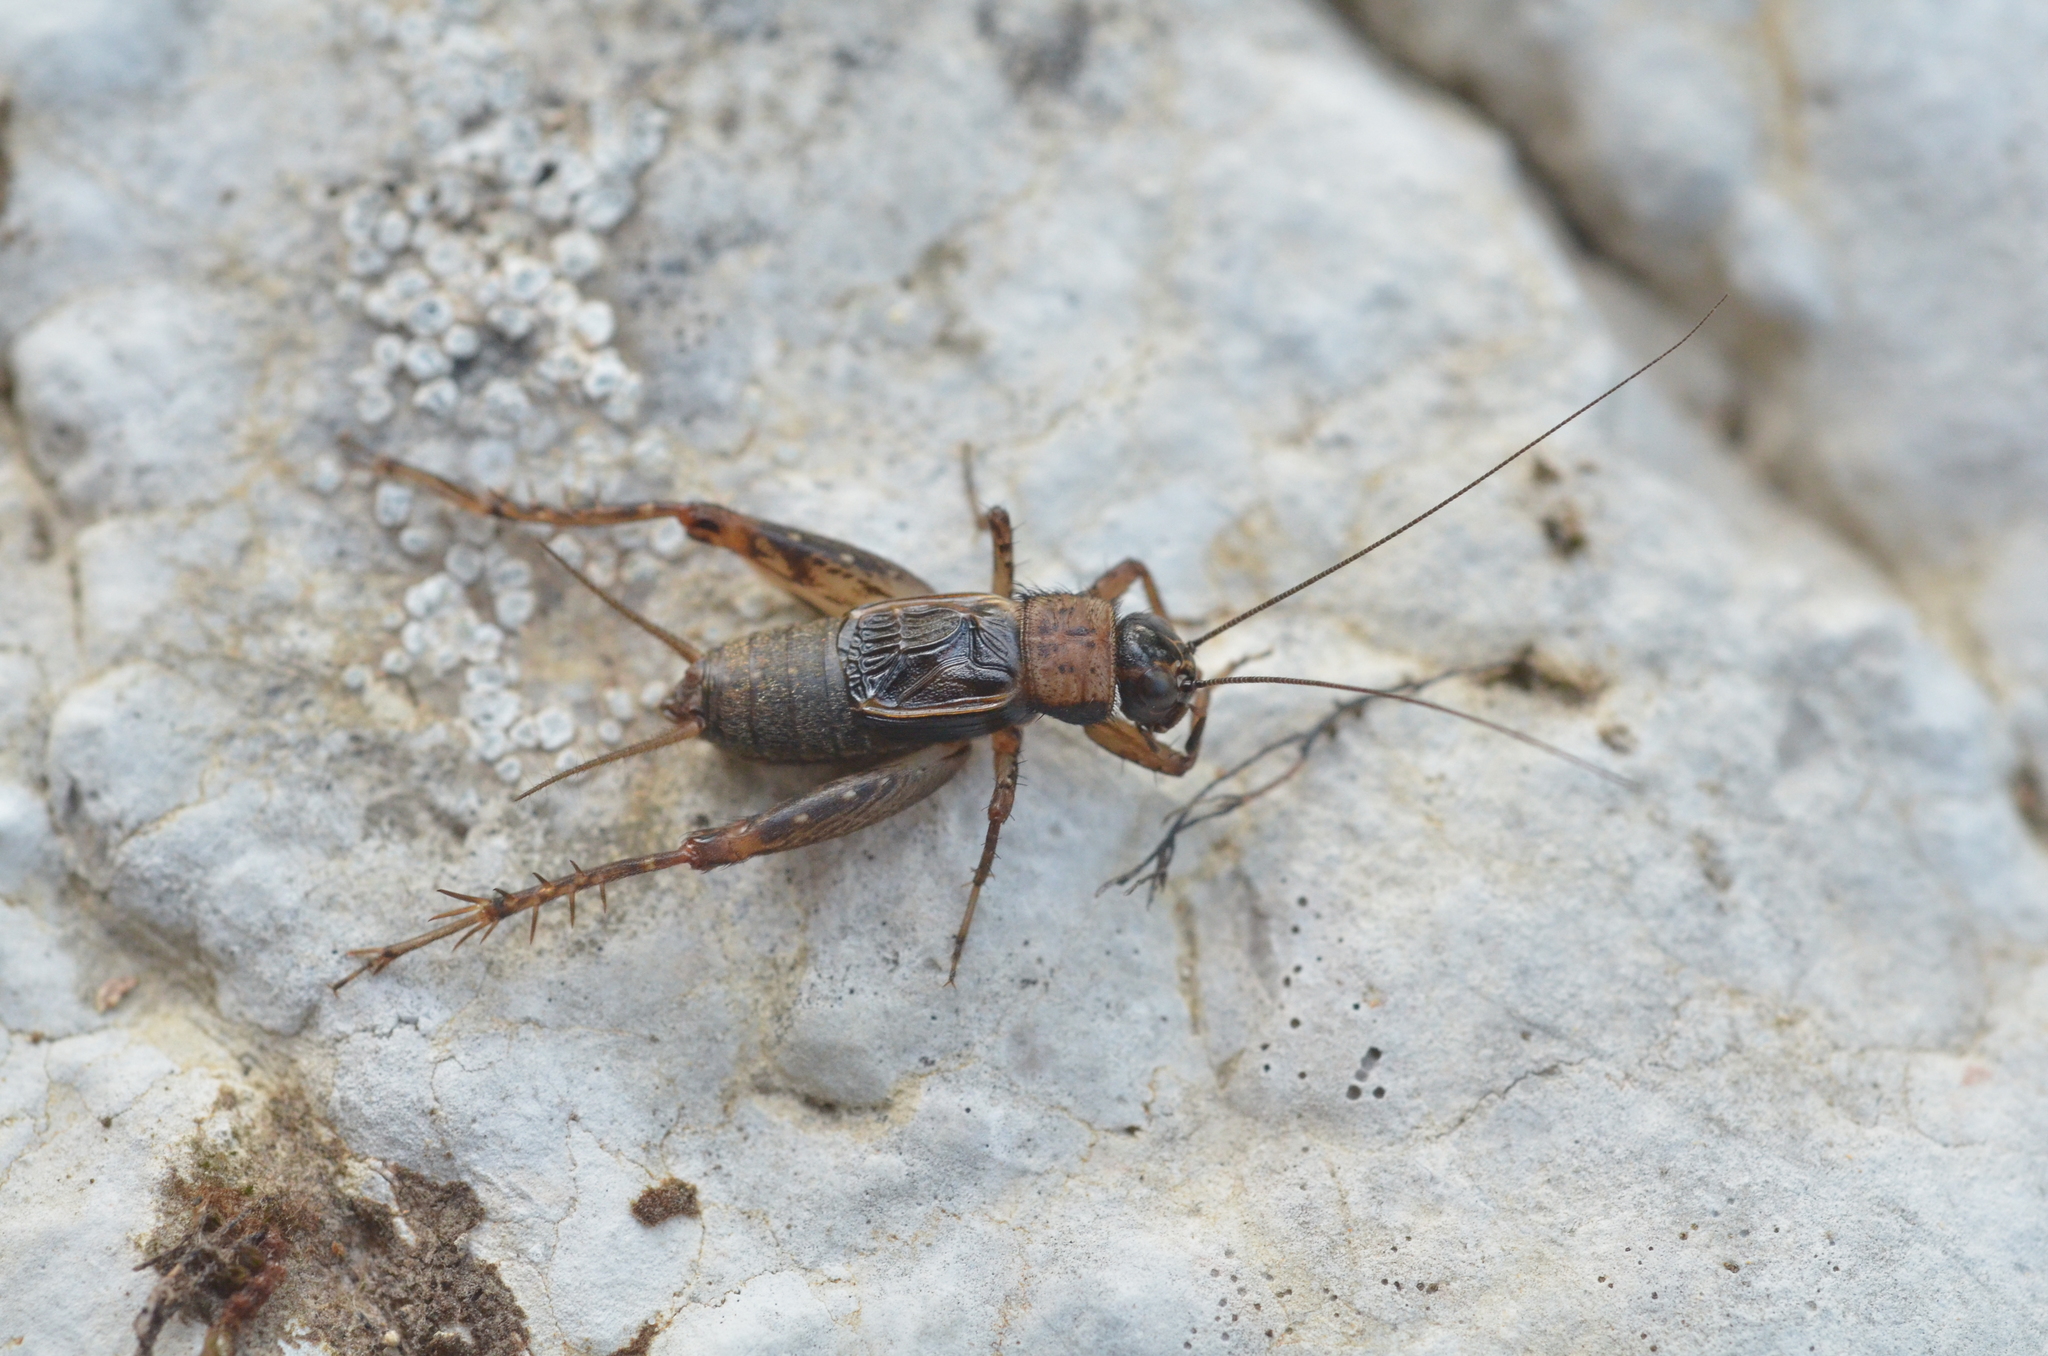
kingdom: Animalia
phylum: Arthropoda
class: Insecta
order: Orthoptera
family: Trigonidiidae
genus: Nemobius
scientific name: Nemobius sylvestris
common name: Wood-cricket
